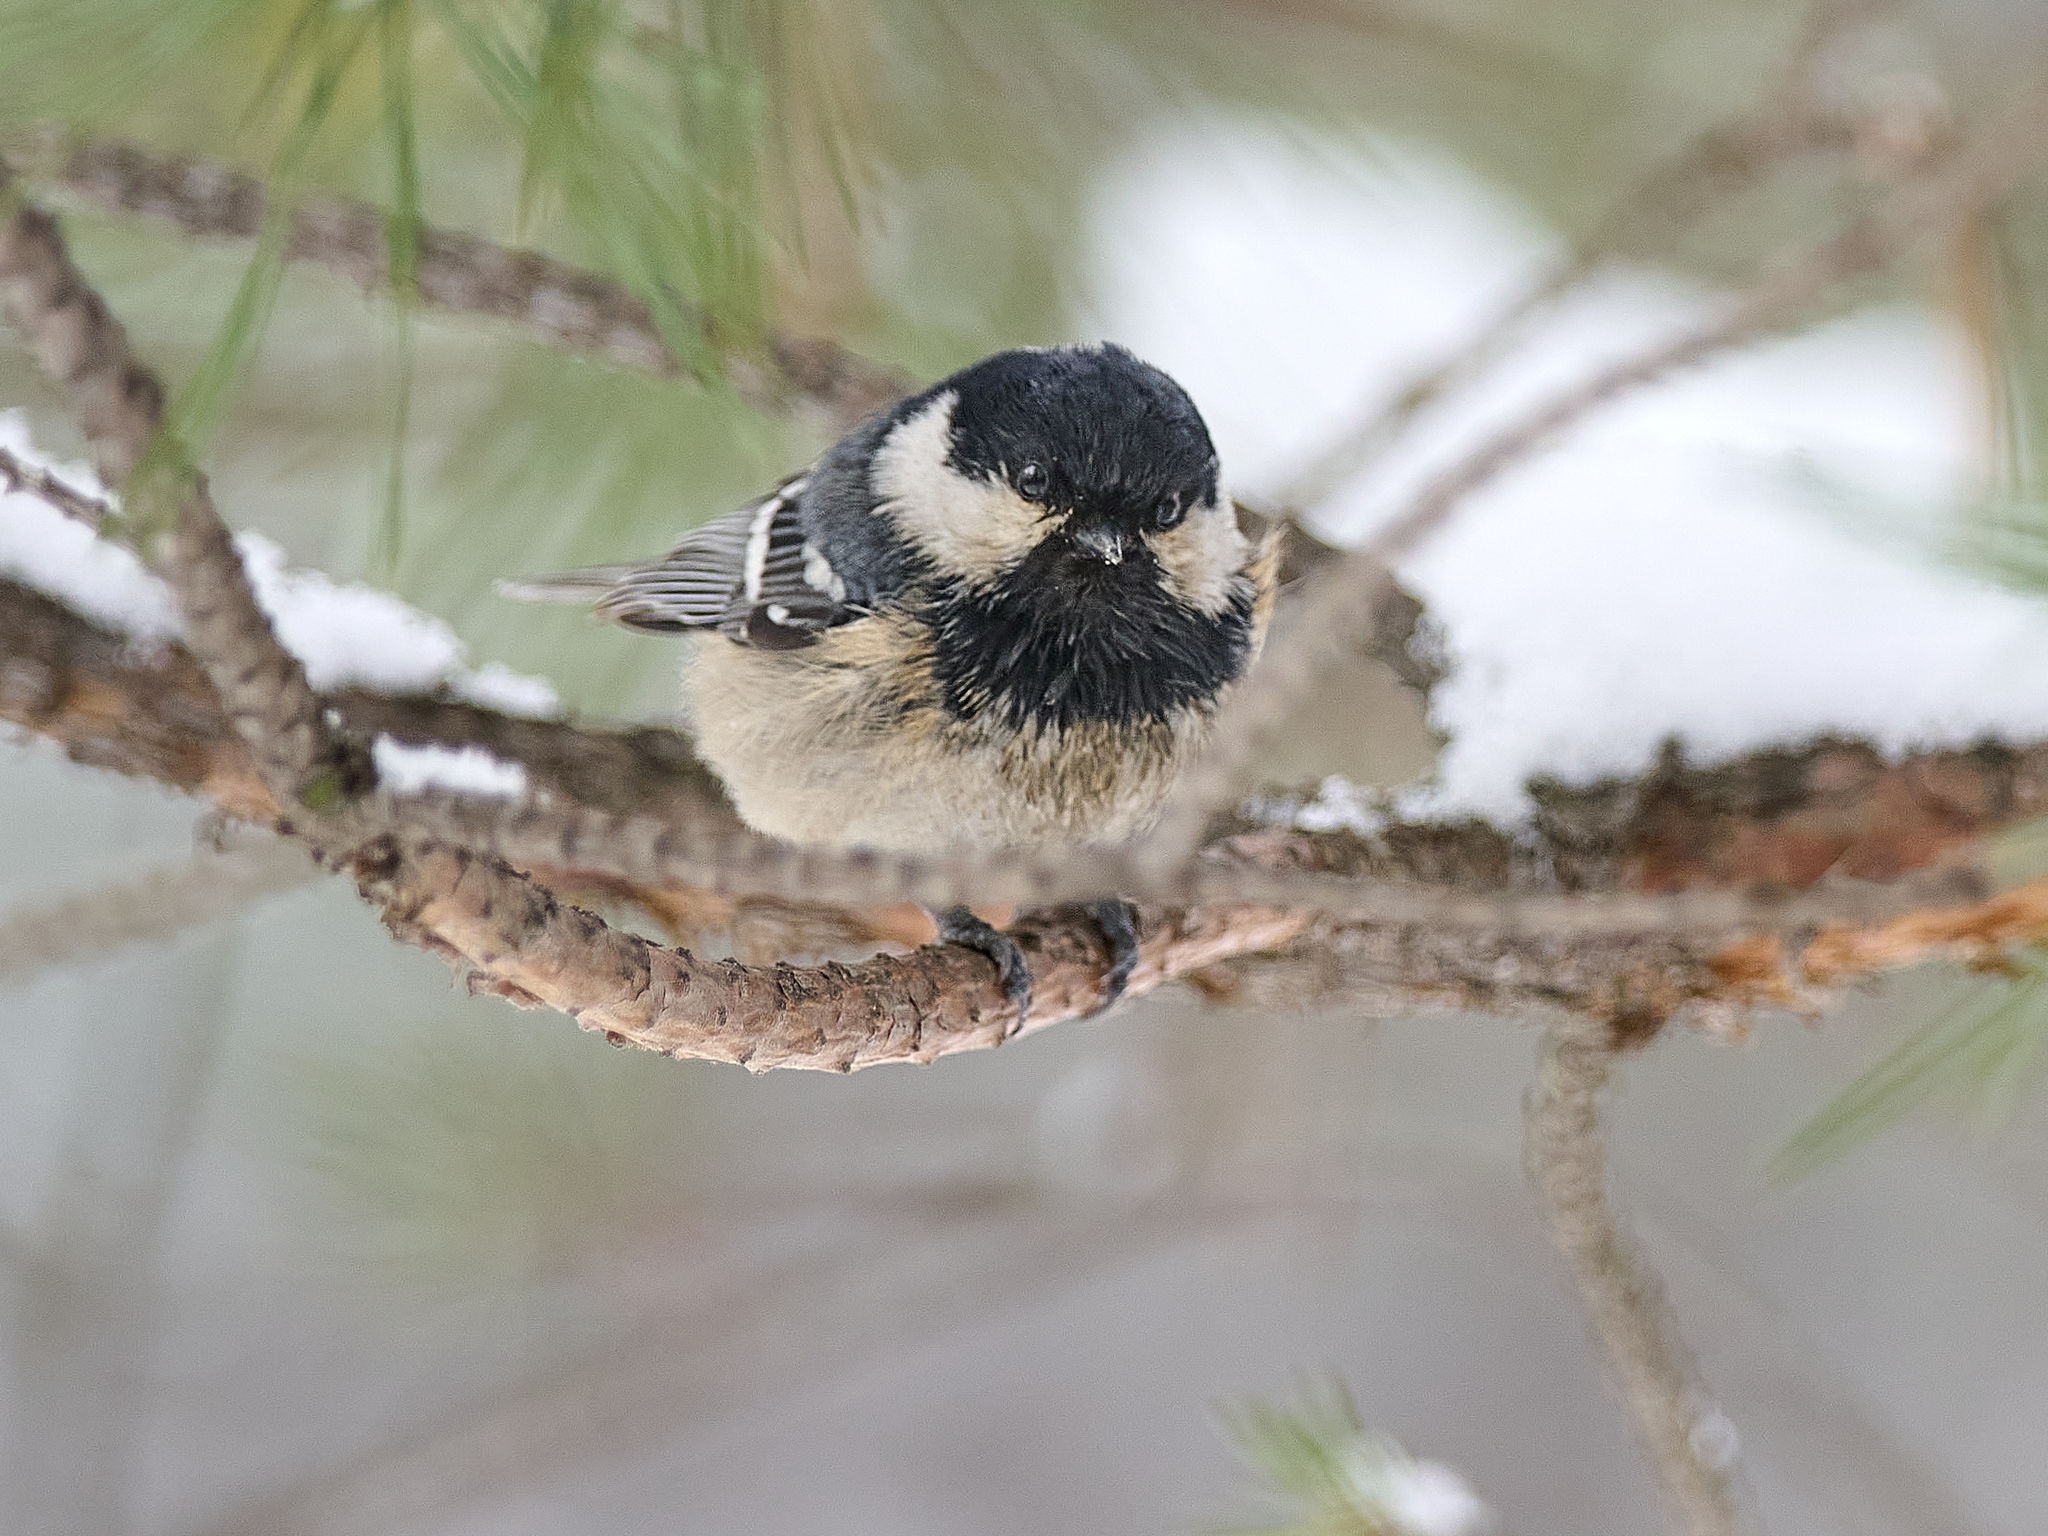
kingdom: Animalia
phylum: Chordata
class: Aves
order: Passeriformes
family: Paridae
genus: Periparus
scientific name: Periparus ater
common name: Coal tit
